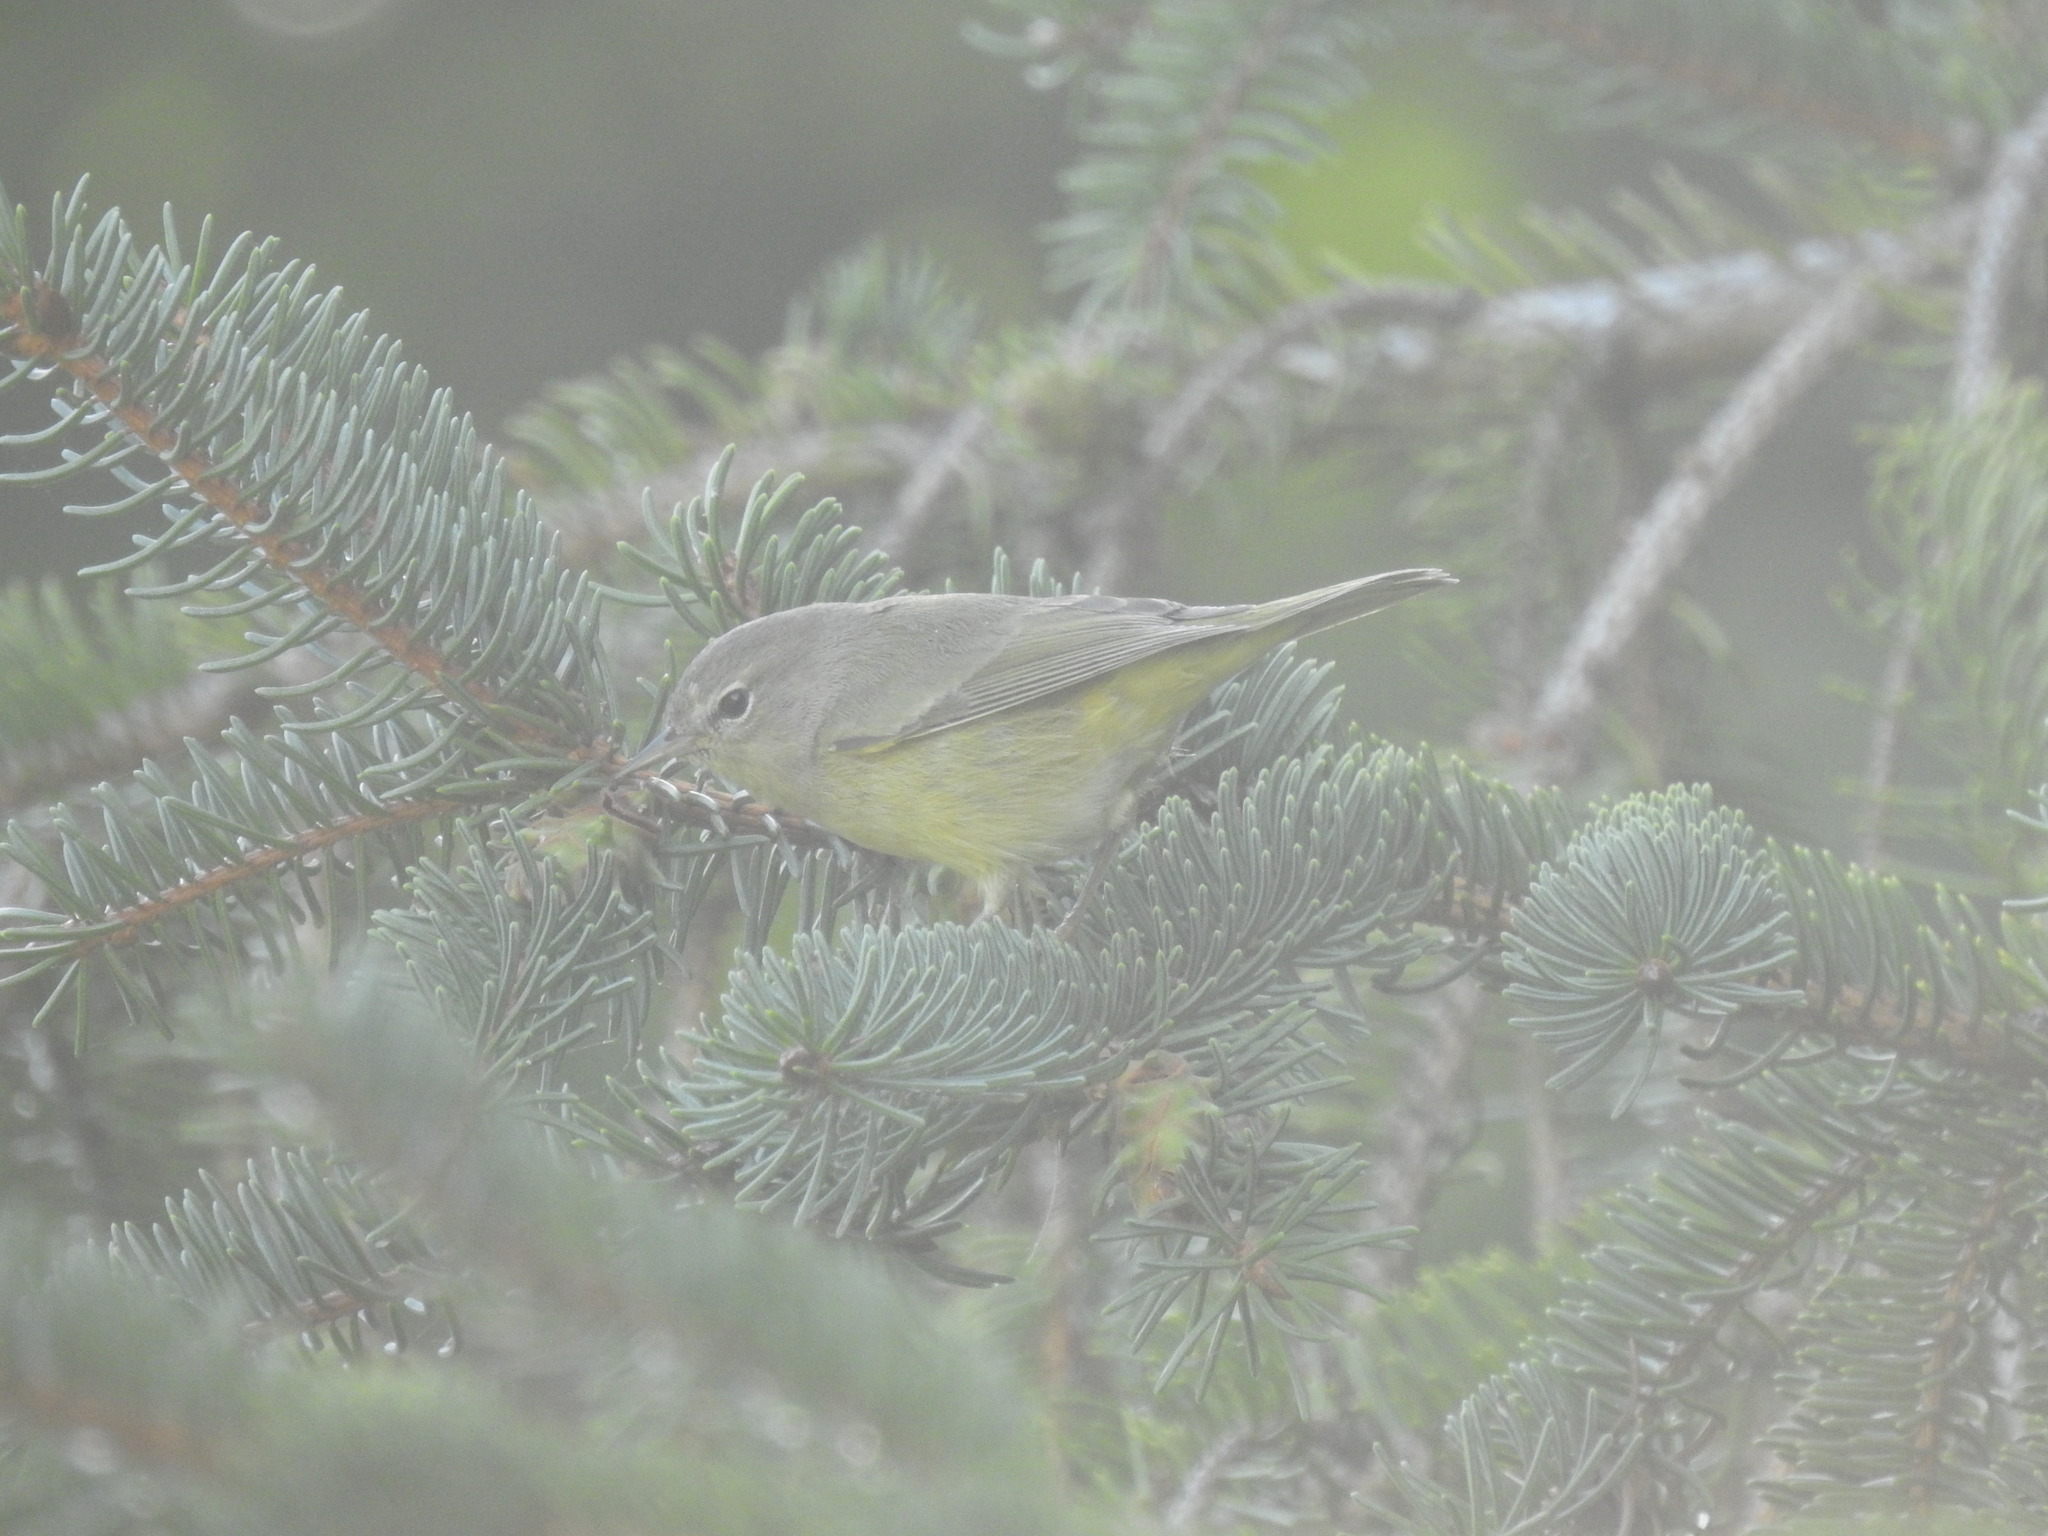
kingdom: Animalia
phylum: Chordata
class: Aves
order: Passeriformes
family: Parulidae
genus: Leiothlypis
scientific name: Leiothlypis celata
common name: Orange-crowned warbler
